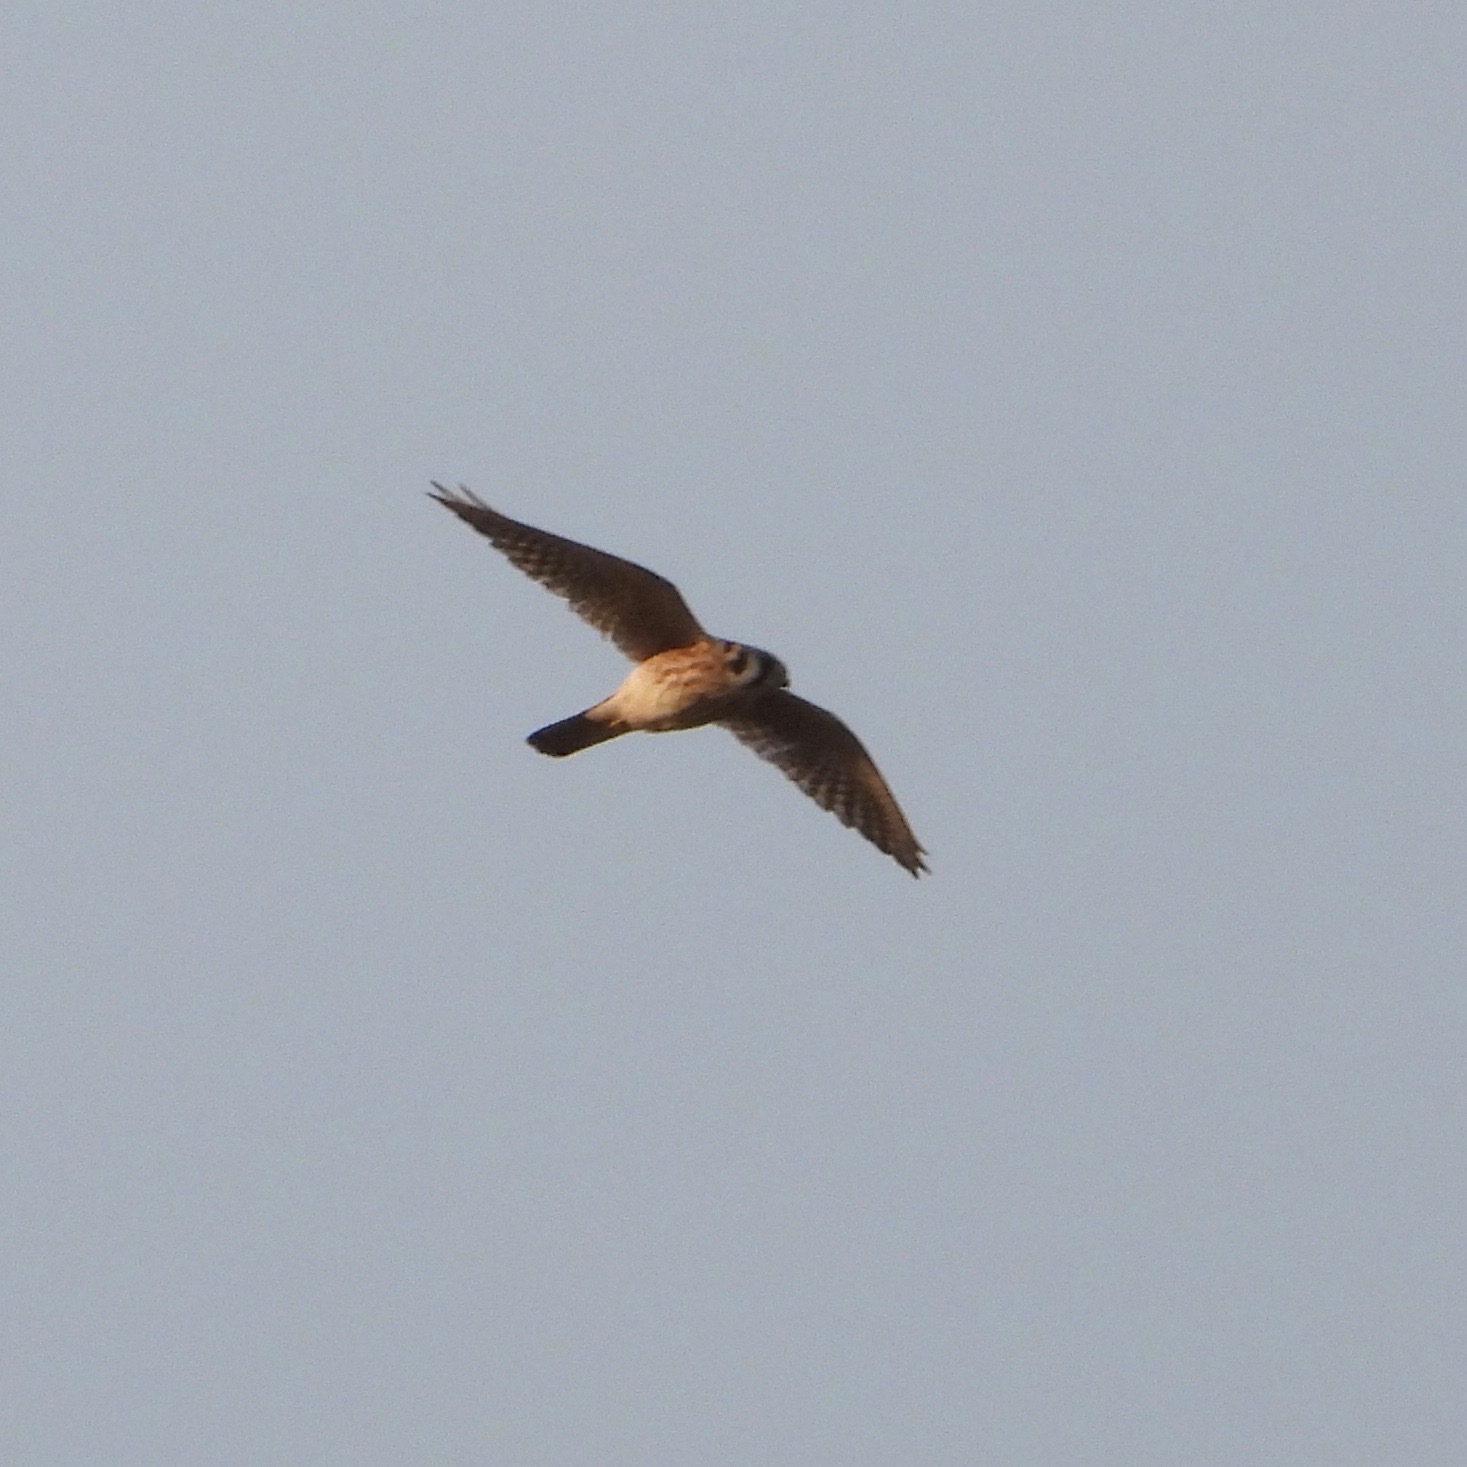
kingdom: Animalia
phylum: Chordata
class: Aves
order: Falconiformes
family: Falconidae
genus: Falco
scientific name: Falco sparverius
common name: American kestrel
